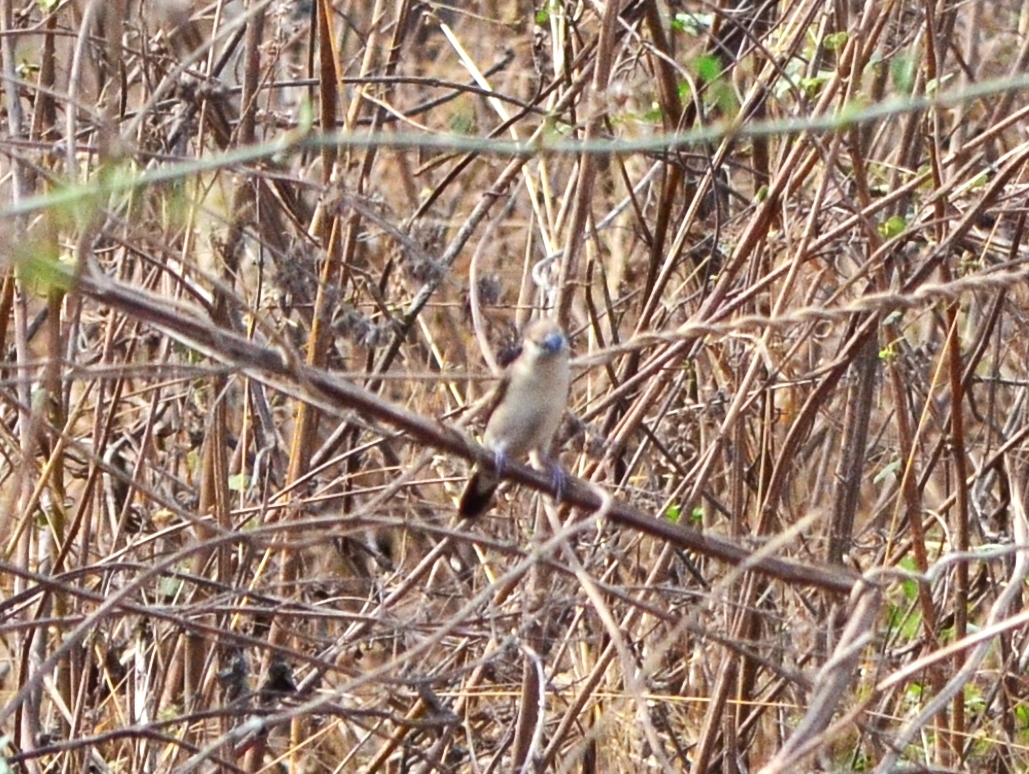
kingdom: Animalia
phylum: Chordata
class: Aves
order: Passeriformes
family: Estrildidae
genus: Euodice
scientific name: Euodice malabarica
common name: Indian silverbill
